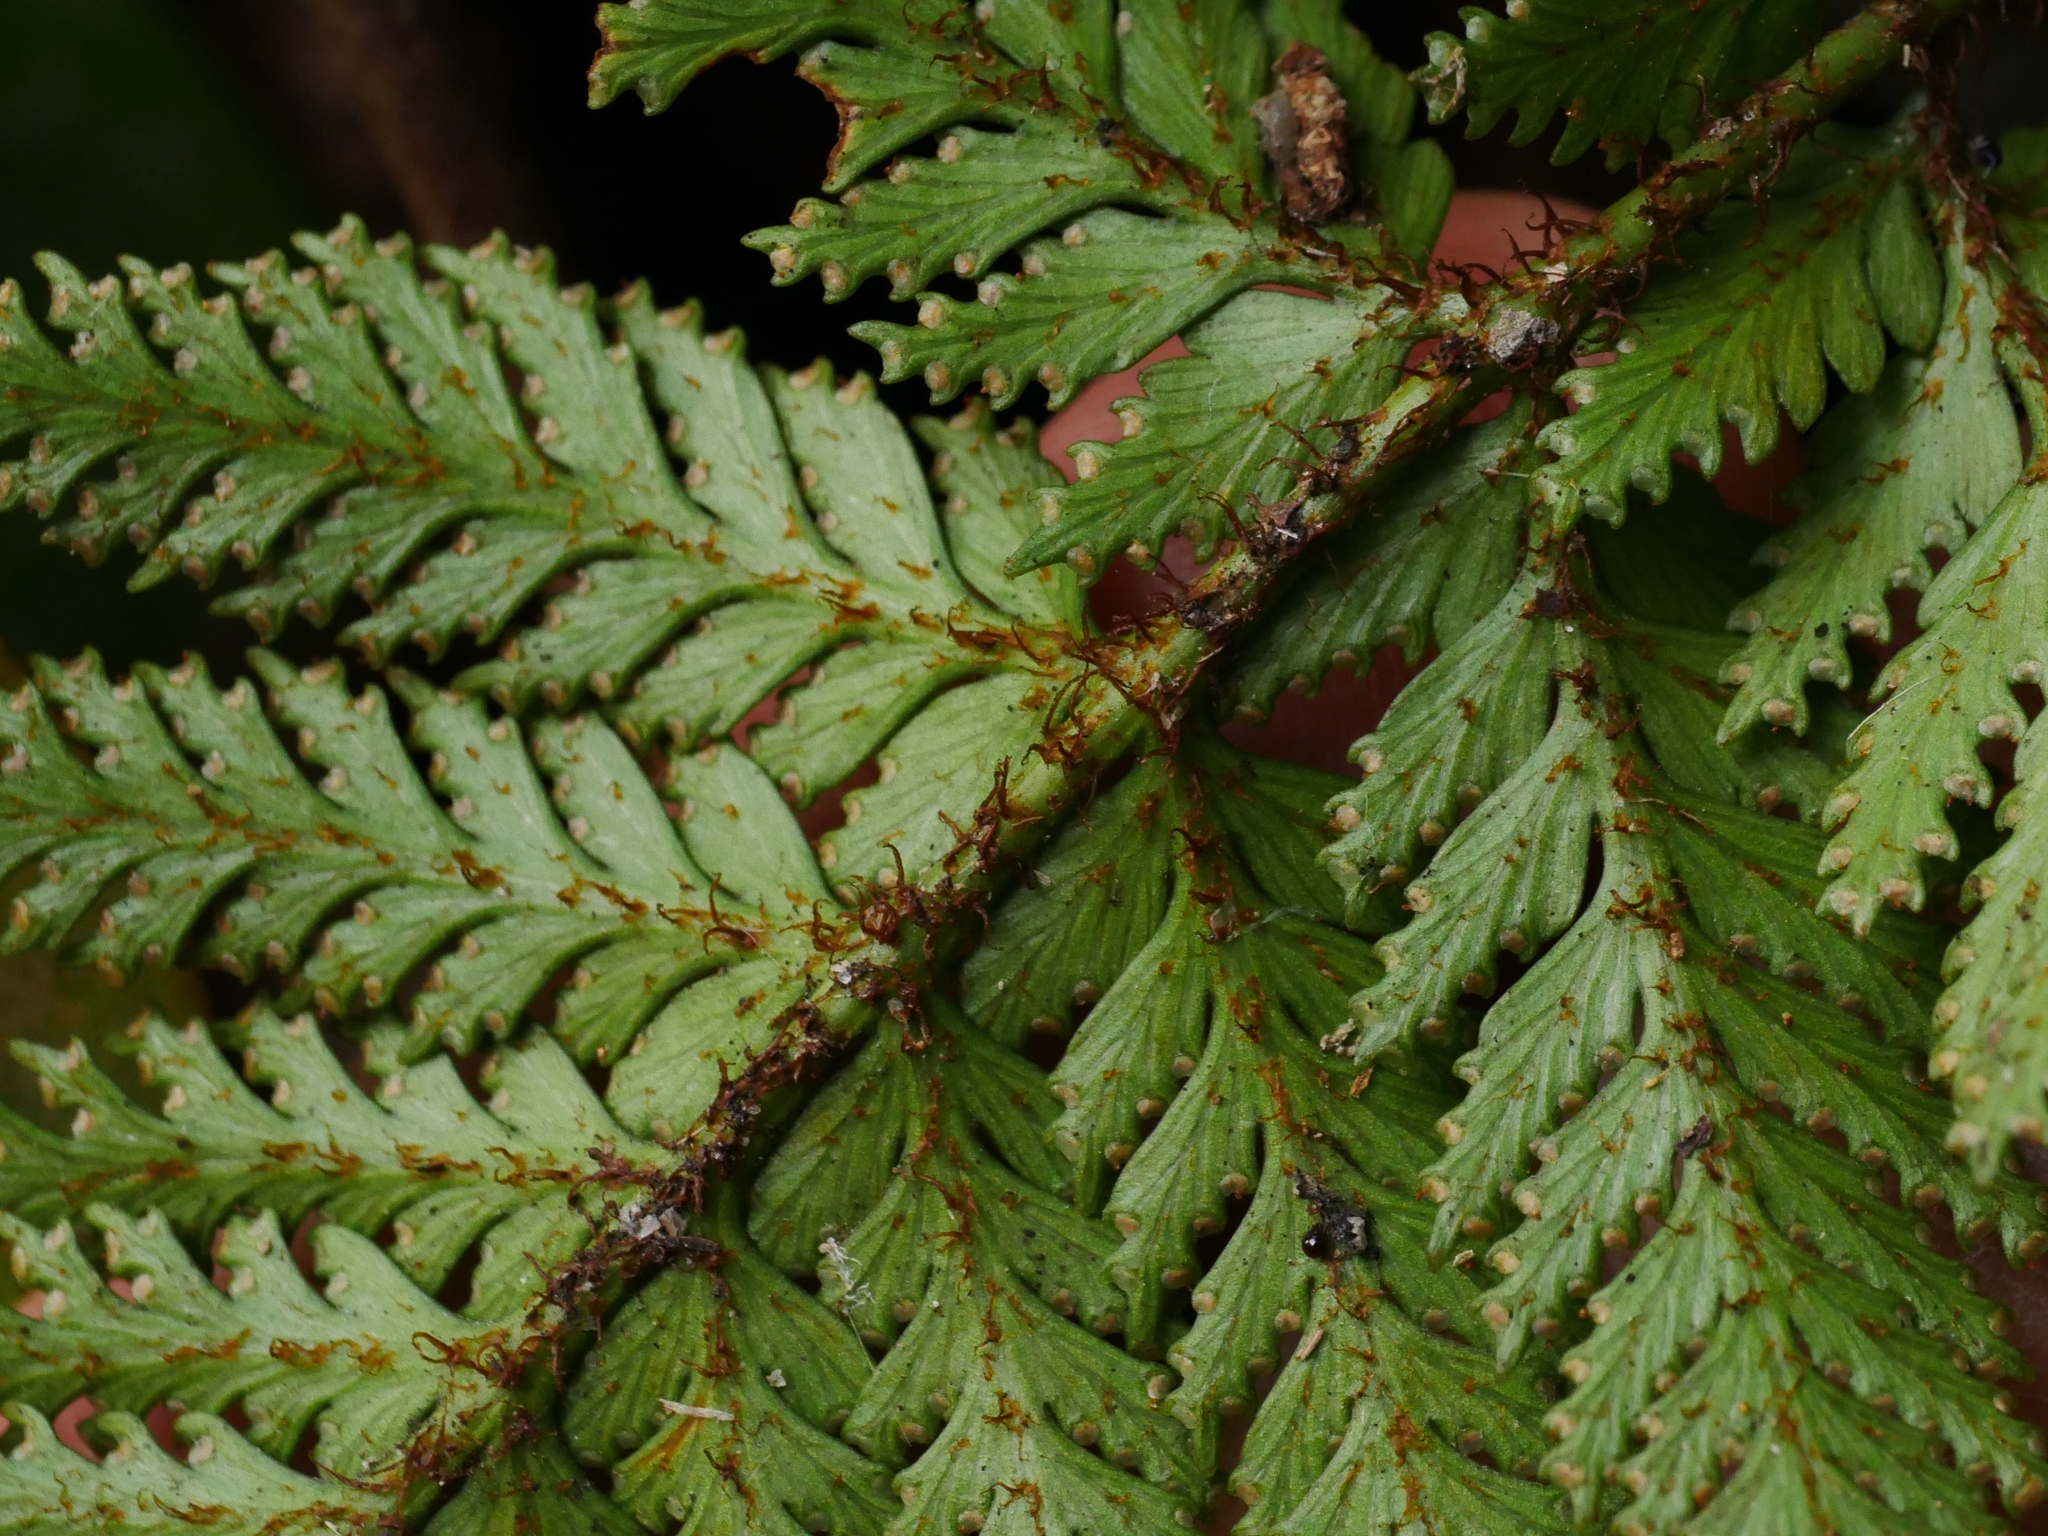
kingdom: Plantae
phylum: Tracheophyta
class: Polypodiopsida
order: Polypodiales
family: Davalliaceae
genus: Davallia
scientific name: Davallia repens
